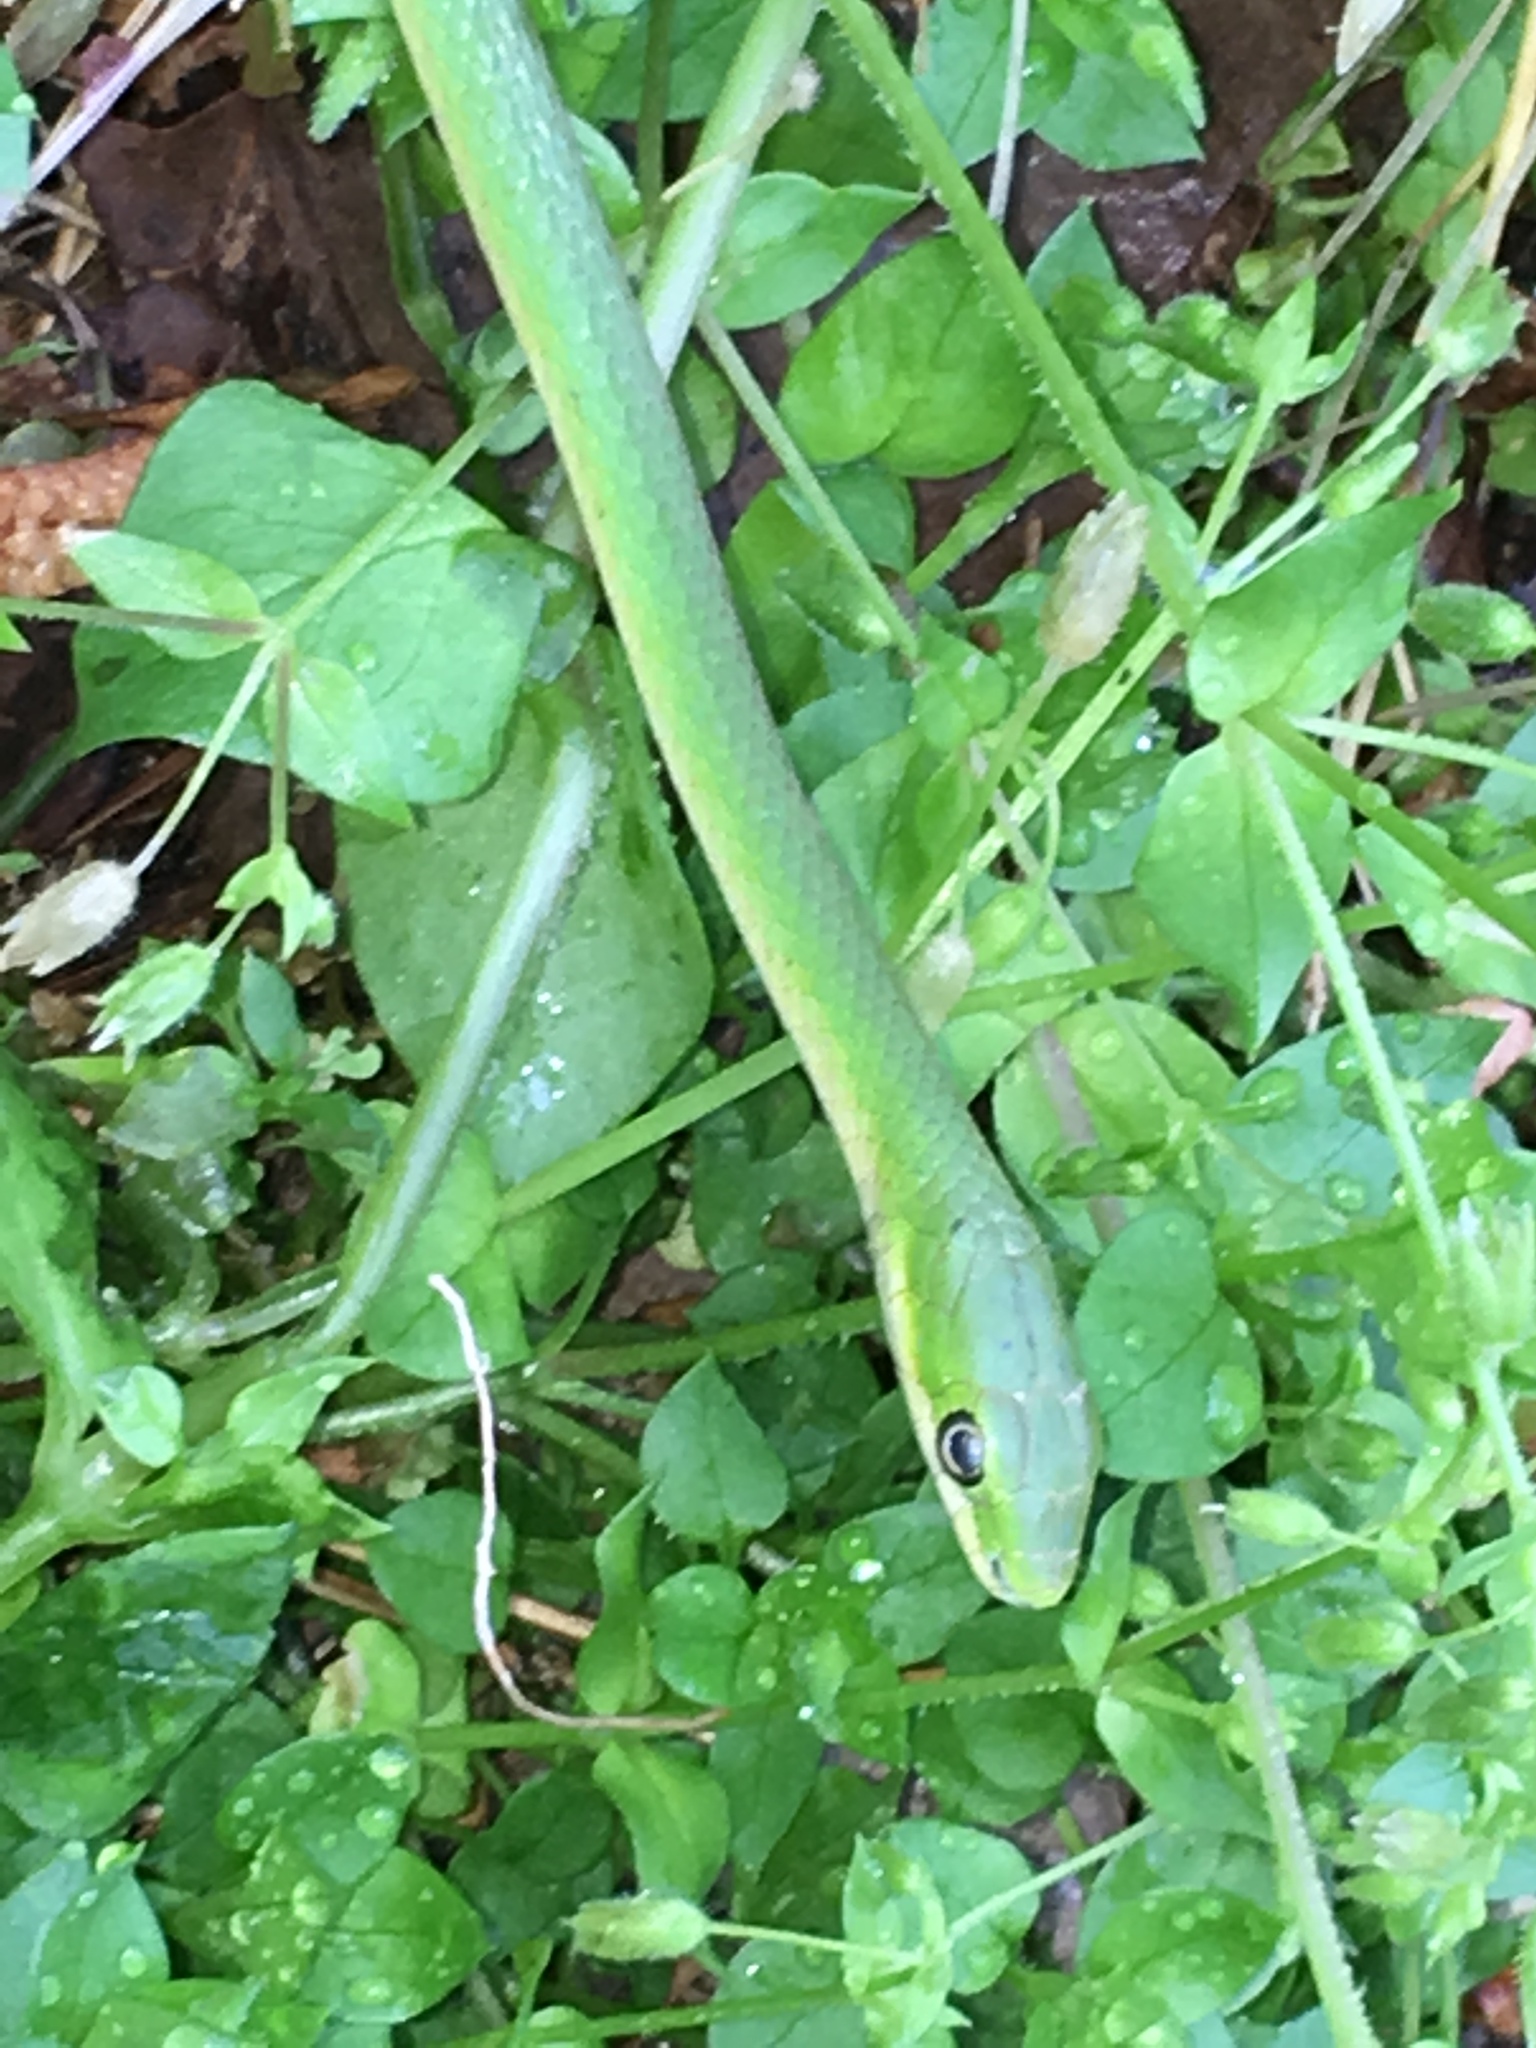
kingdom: Animalia
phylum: Chordata
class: Squamata
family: Colubridae
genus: Opheodrys
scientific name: Opheodrys aestivus
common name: Rough greensnake
